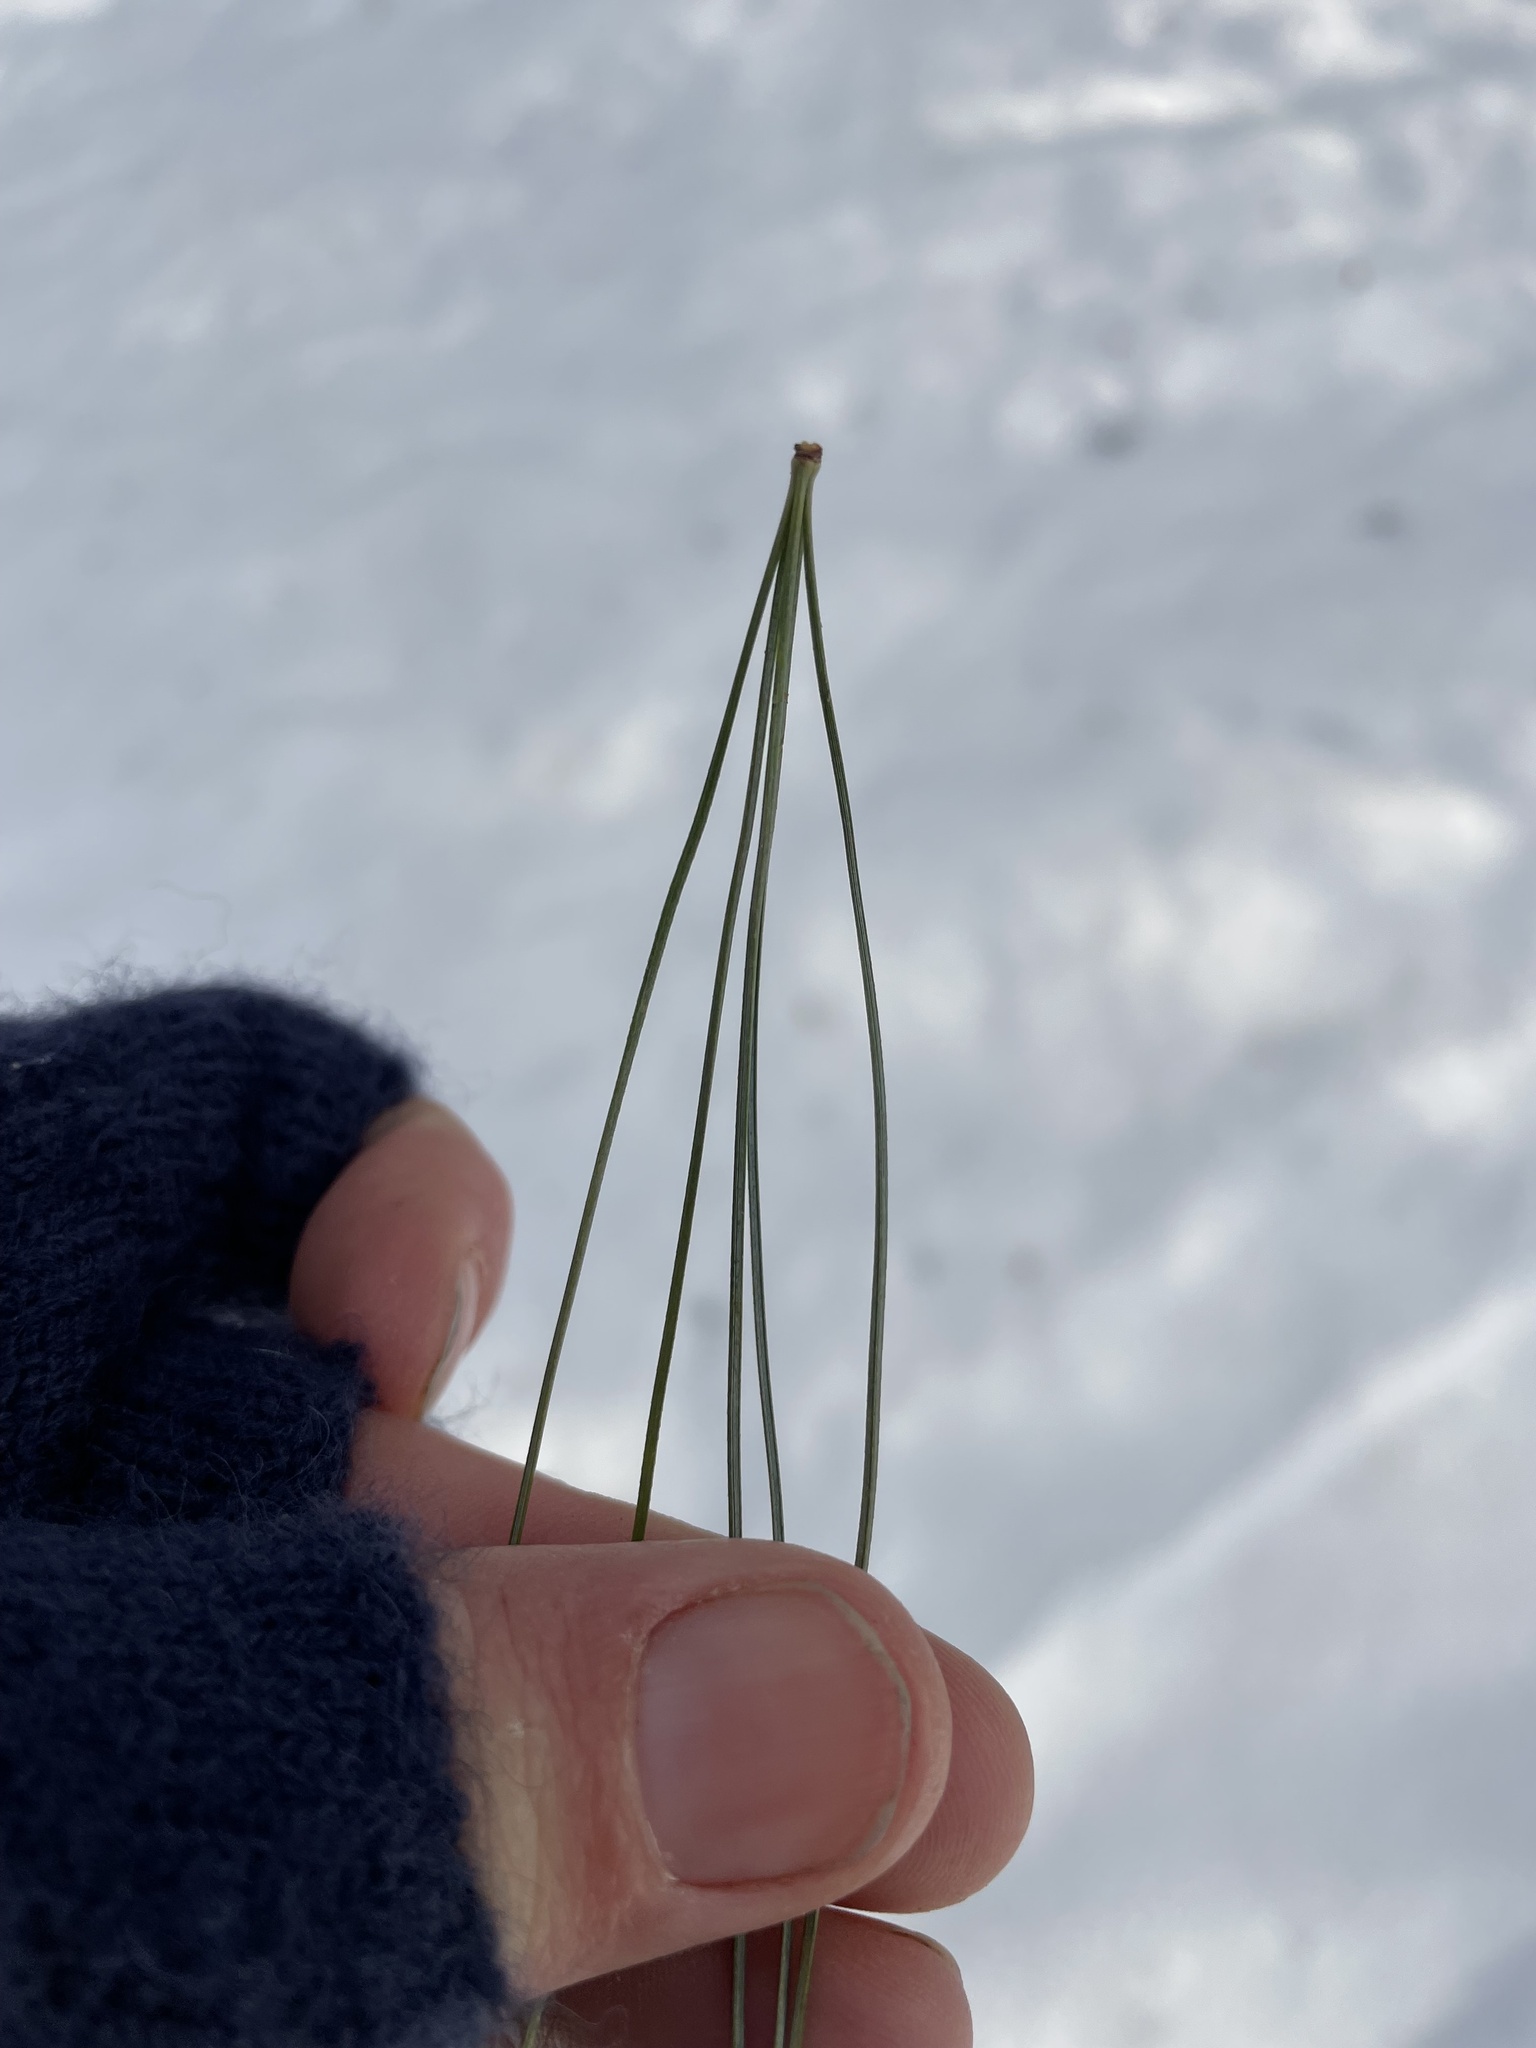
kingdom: Plantae
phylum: Tracheophyta
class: Pinopsida
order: Pinales
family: Pinaceae
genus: Pinus
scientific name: Pinus strobus
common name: Weymouth pine
